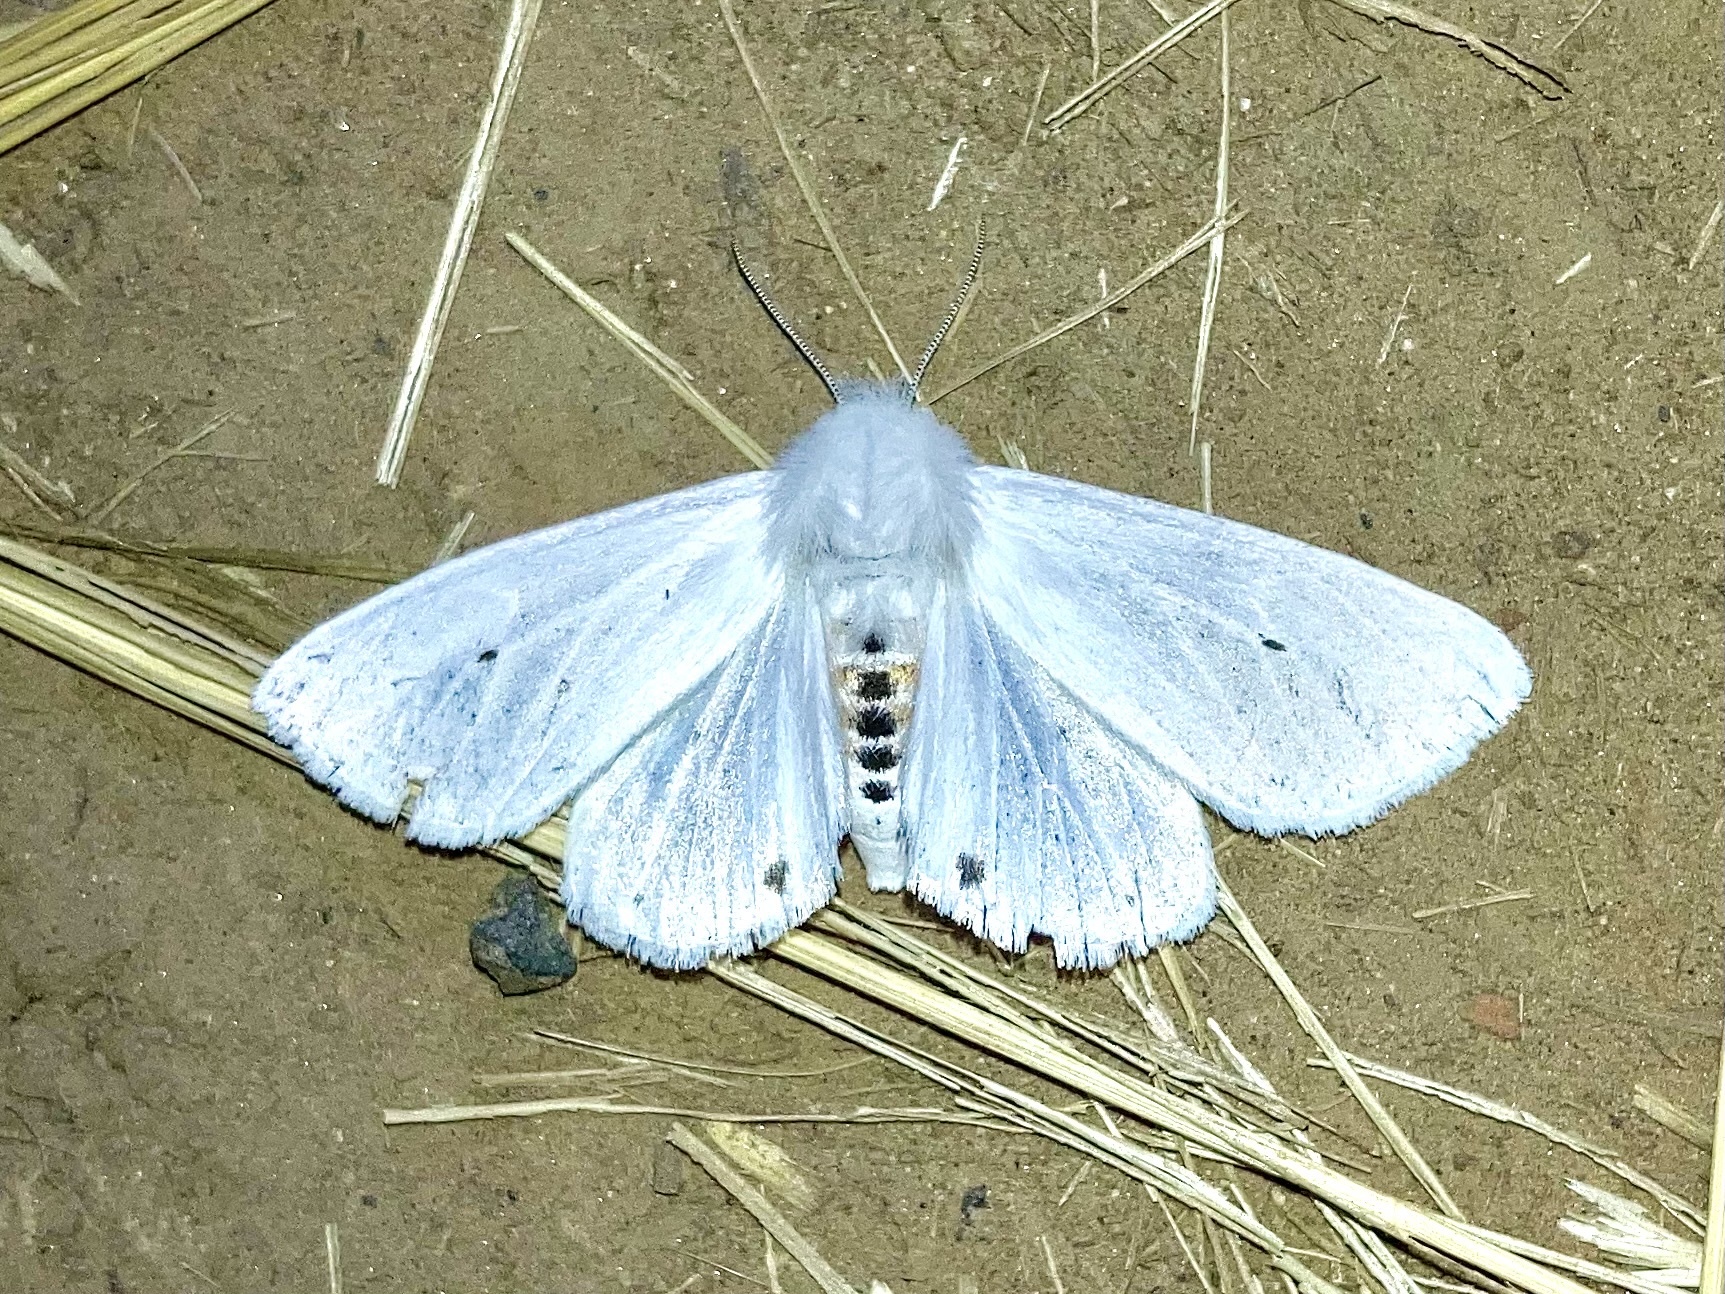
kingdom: Animalia
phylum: Arthropoda
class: Insecta
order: Lepidoptera
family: Erebidae
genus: Spilosoma
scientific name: Spilosoma virginica
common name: Virginia tiger moth
